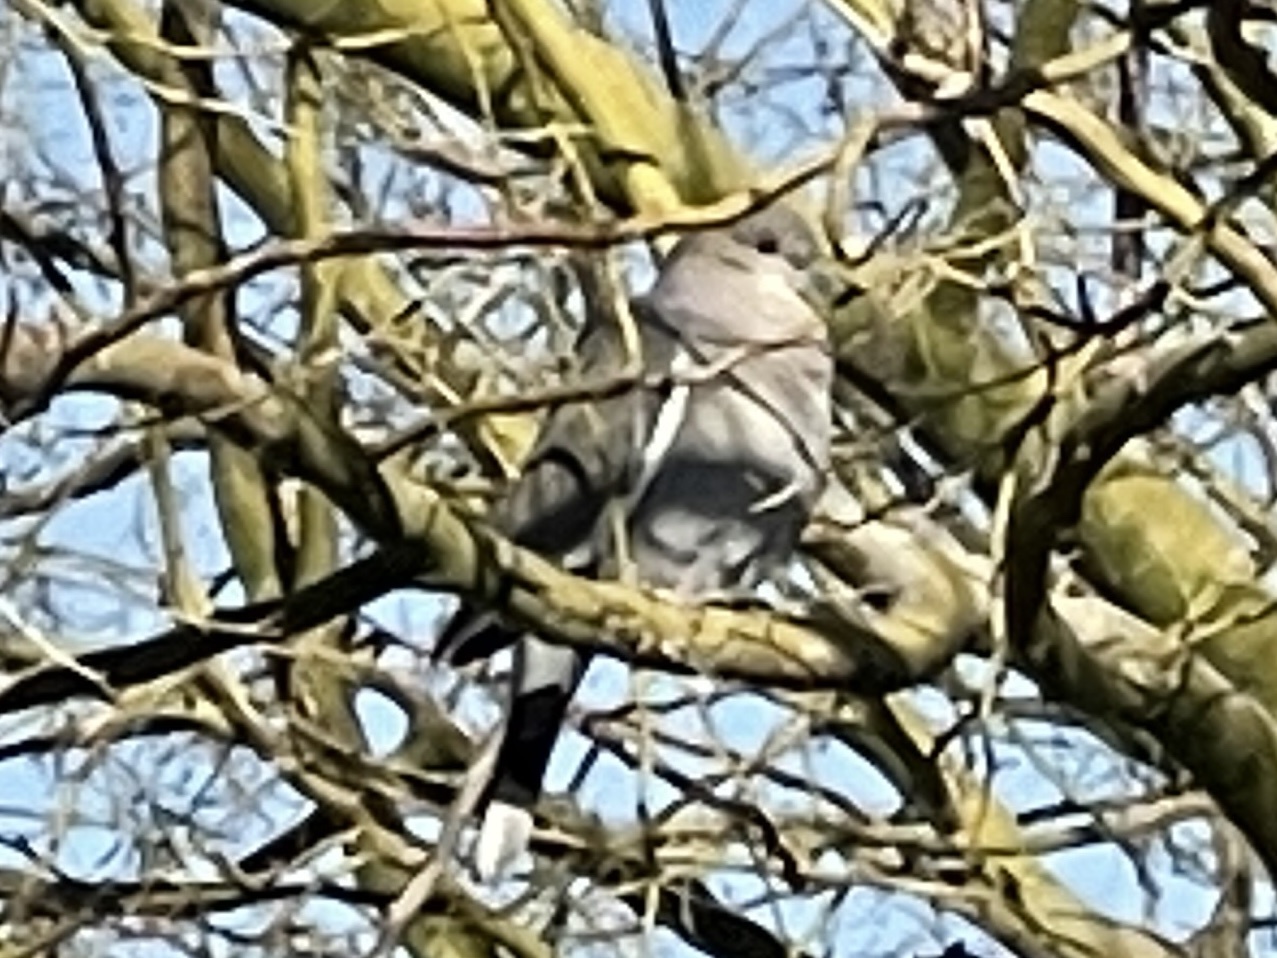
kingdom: Animalia
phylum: Chordata
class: Aves
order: Columbiformes
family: Columbidae
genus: Zenaida
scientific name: Zenaida asiatica
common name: White-winged dove
